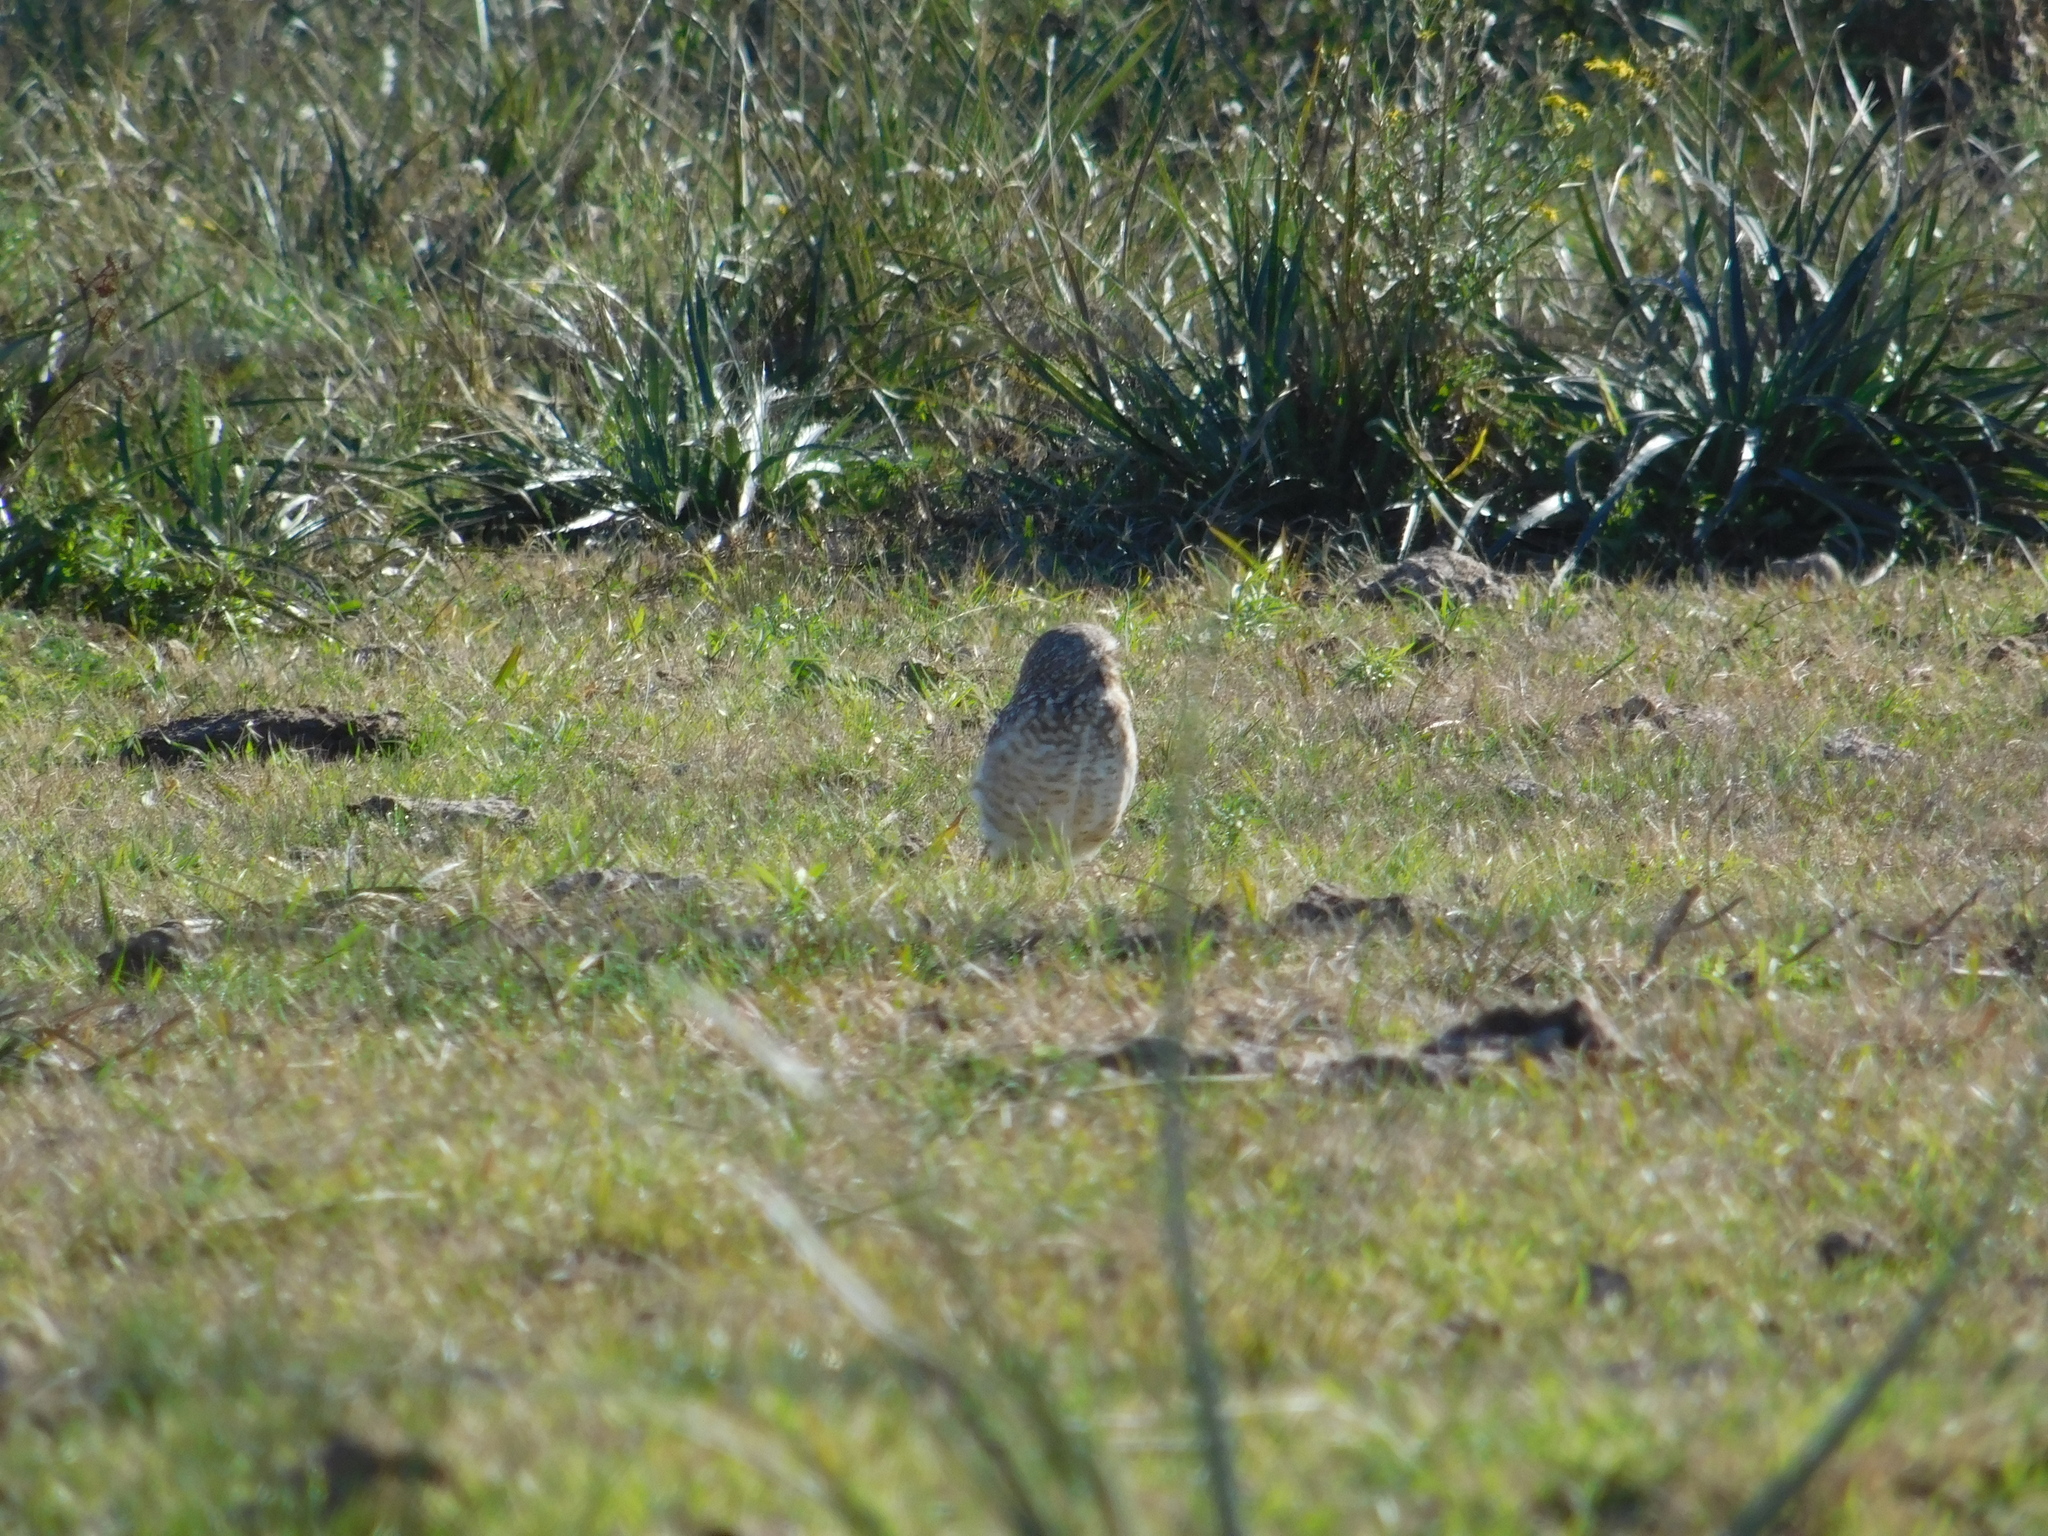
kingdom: Animalia
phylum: Chordata
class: Aves
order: Strigiformes
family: Strigidae
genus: Athene
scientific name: Athene cunicularia
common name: Burrowing owl
